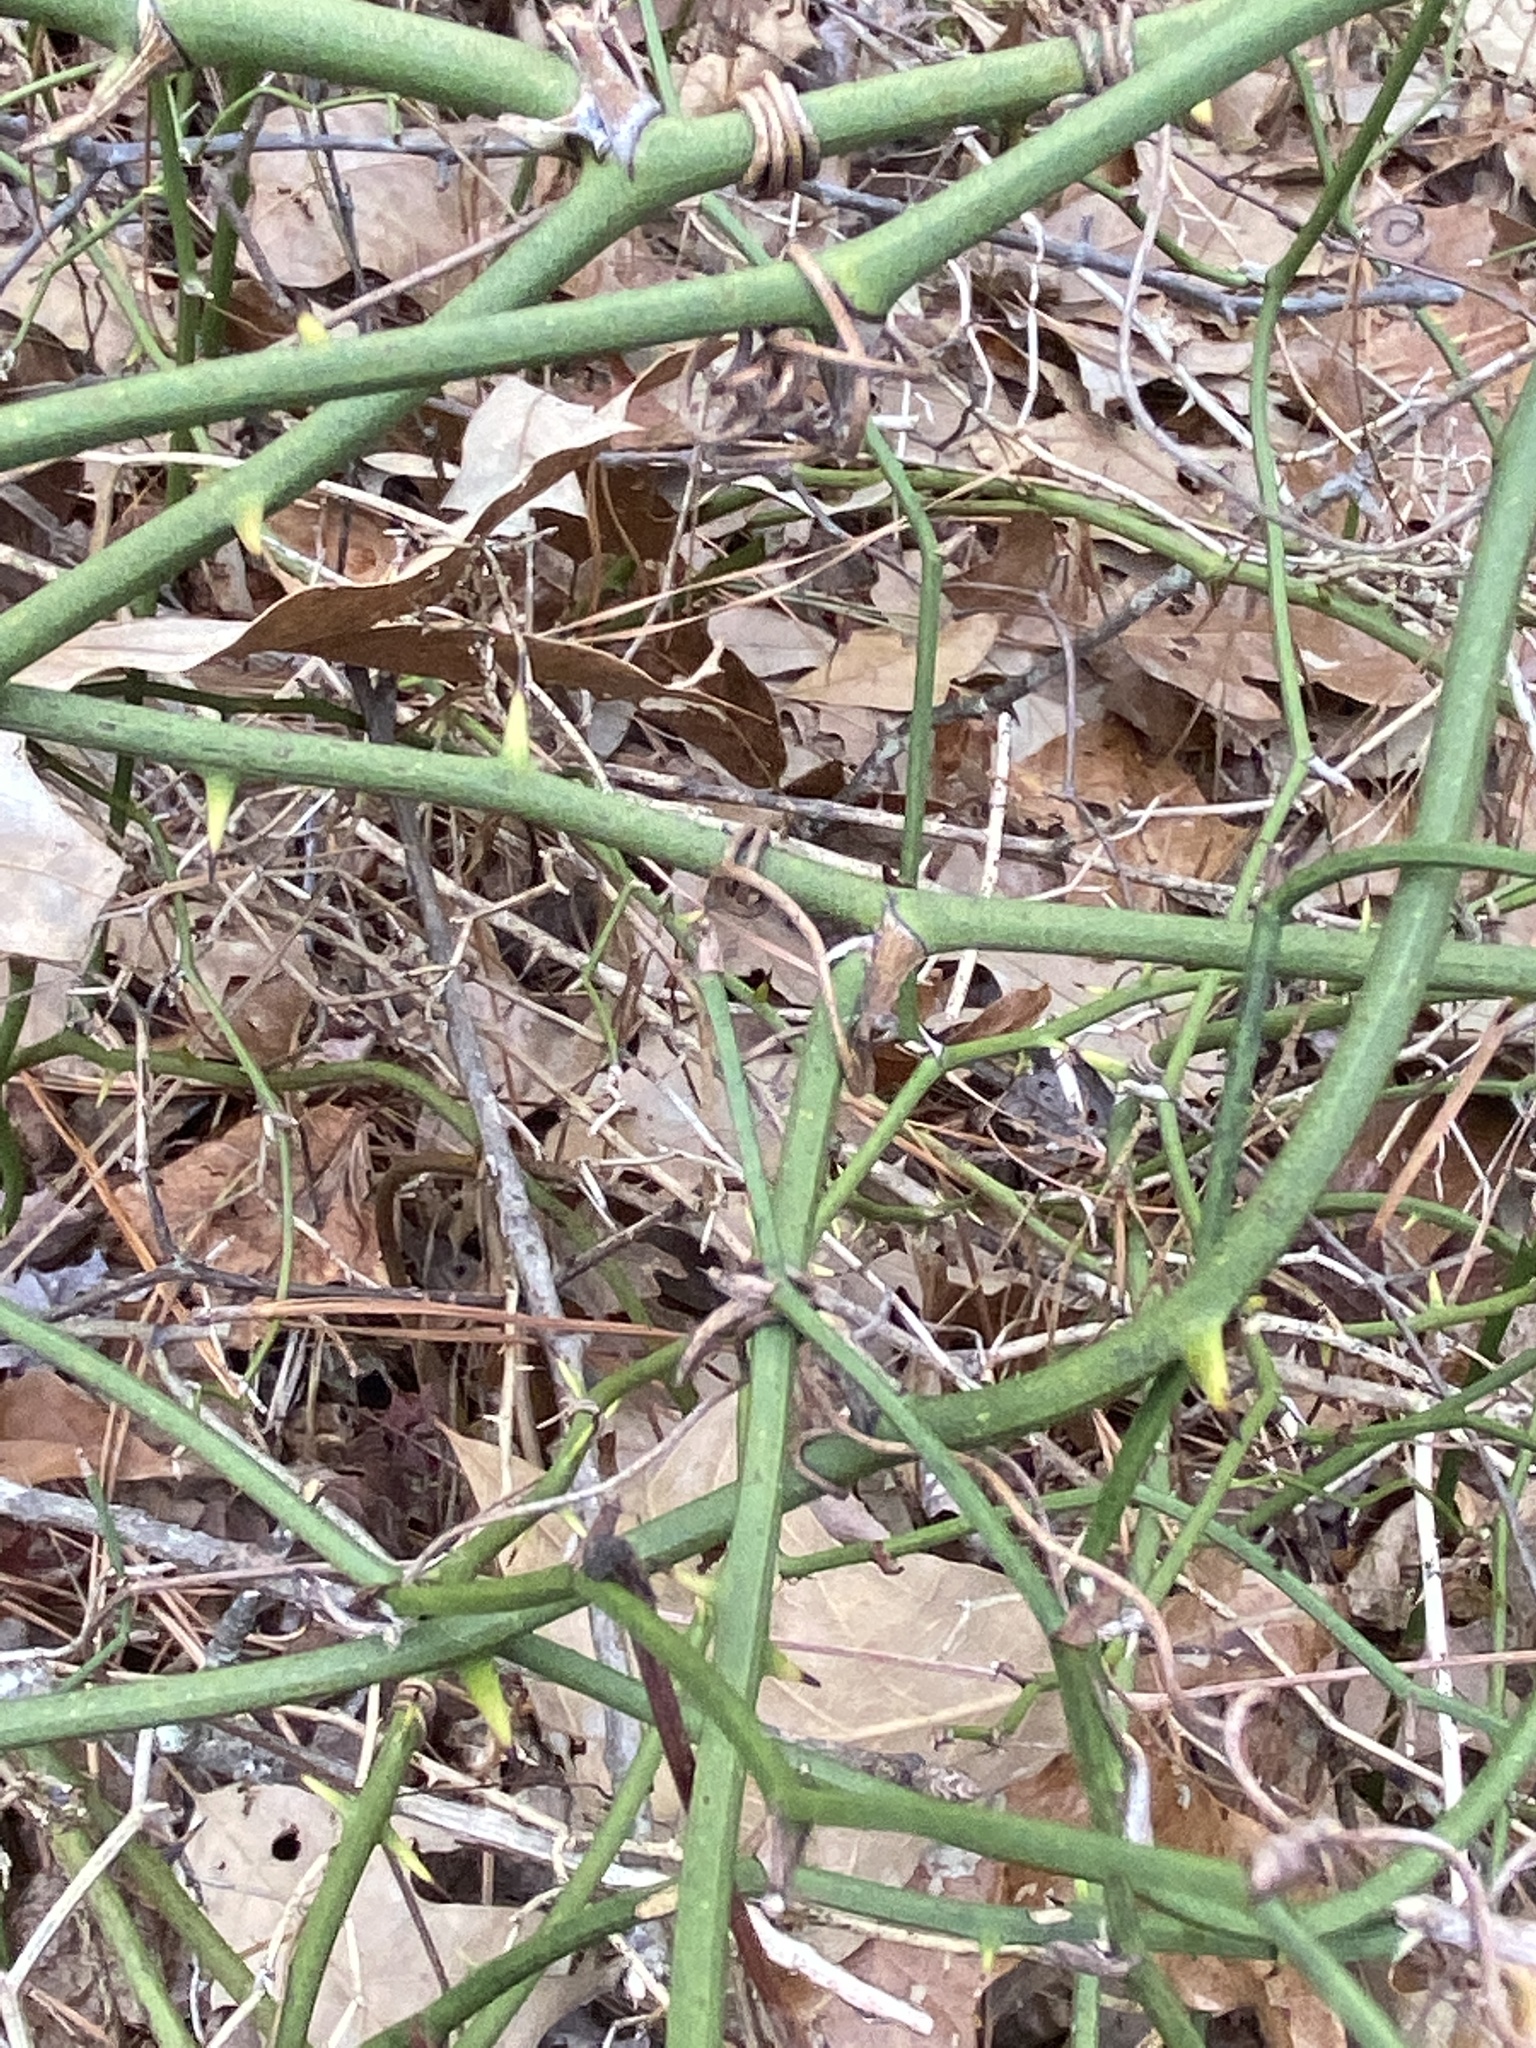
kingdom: Plantae
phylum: Tracheophyta
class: Liliopsida
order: Liliales
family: Smilacaceae
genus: Smilax
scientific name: Smilax rotundifolia
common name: Bullbriar
